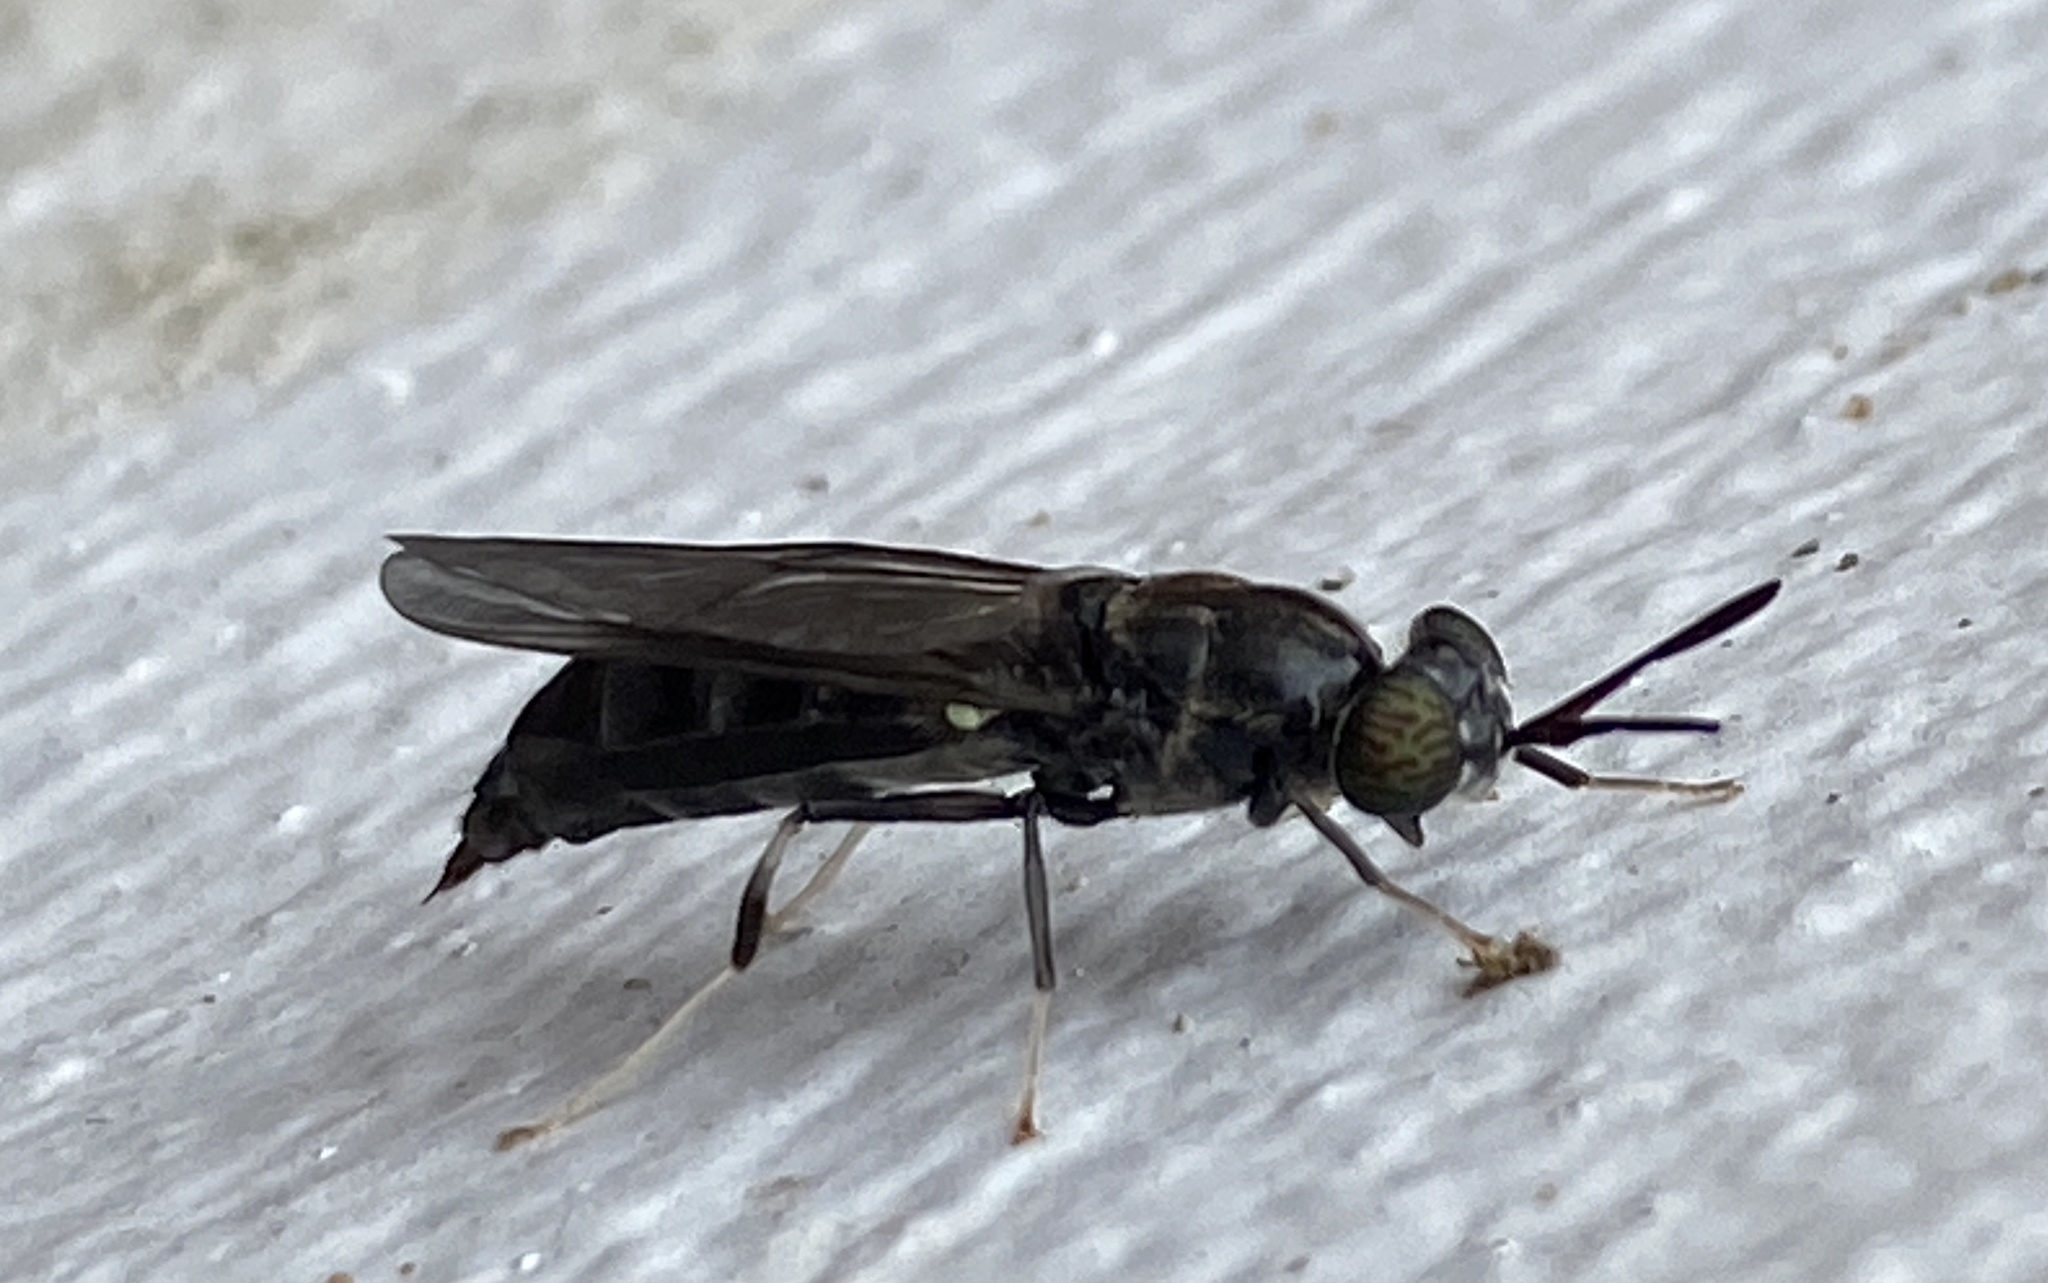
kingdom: Animalia
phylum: Arthropoda
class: Insecta
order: Diptera
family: Stratiomyidae
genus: Hermetia
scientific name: Hermetia illucens
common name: Black soldier fly
